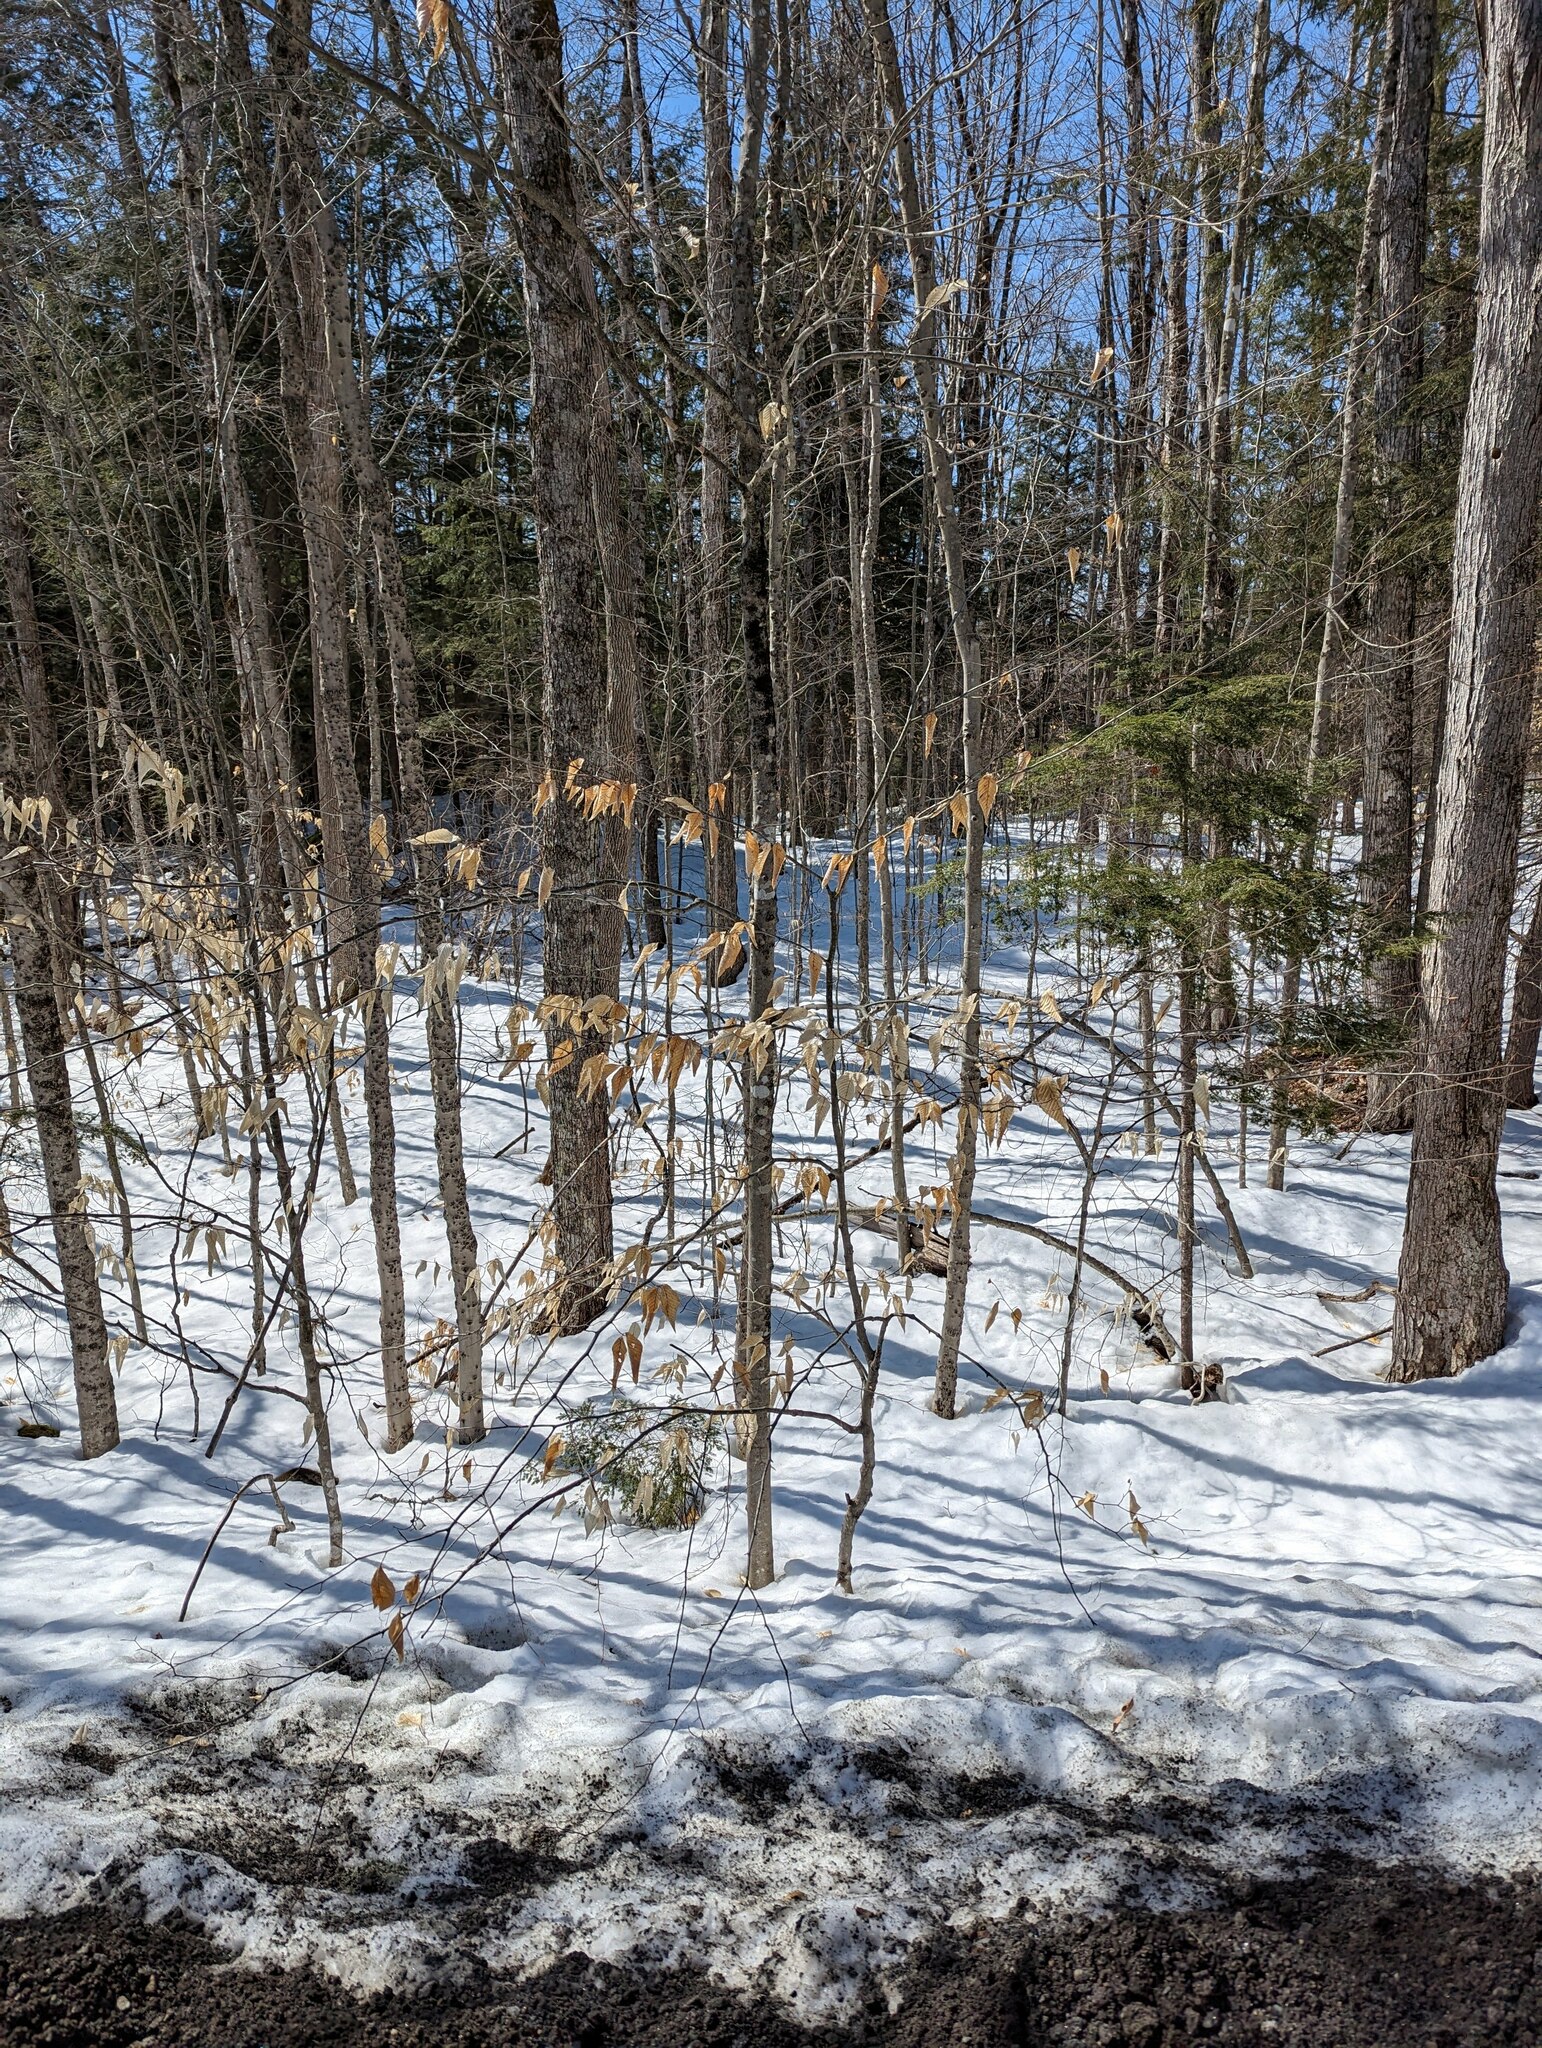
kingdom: Plantae
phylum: Tracheophyta
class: Magnoliopsida
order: Fagales
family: Fagaceae
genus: Fagus
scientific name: Fagus grandifolia
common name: American beech
